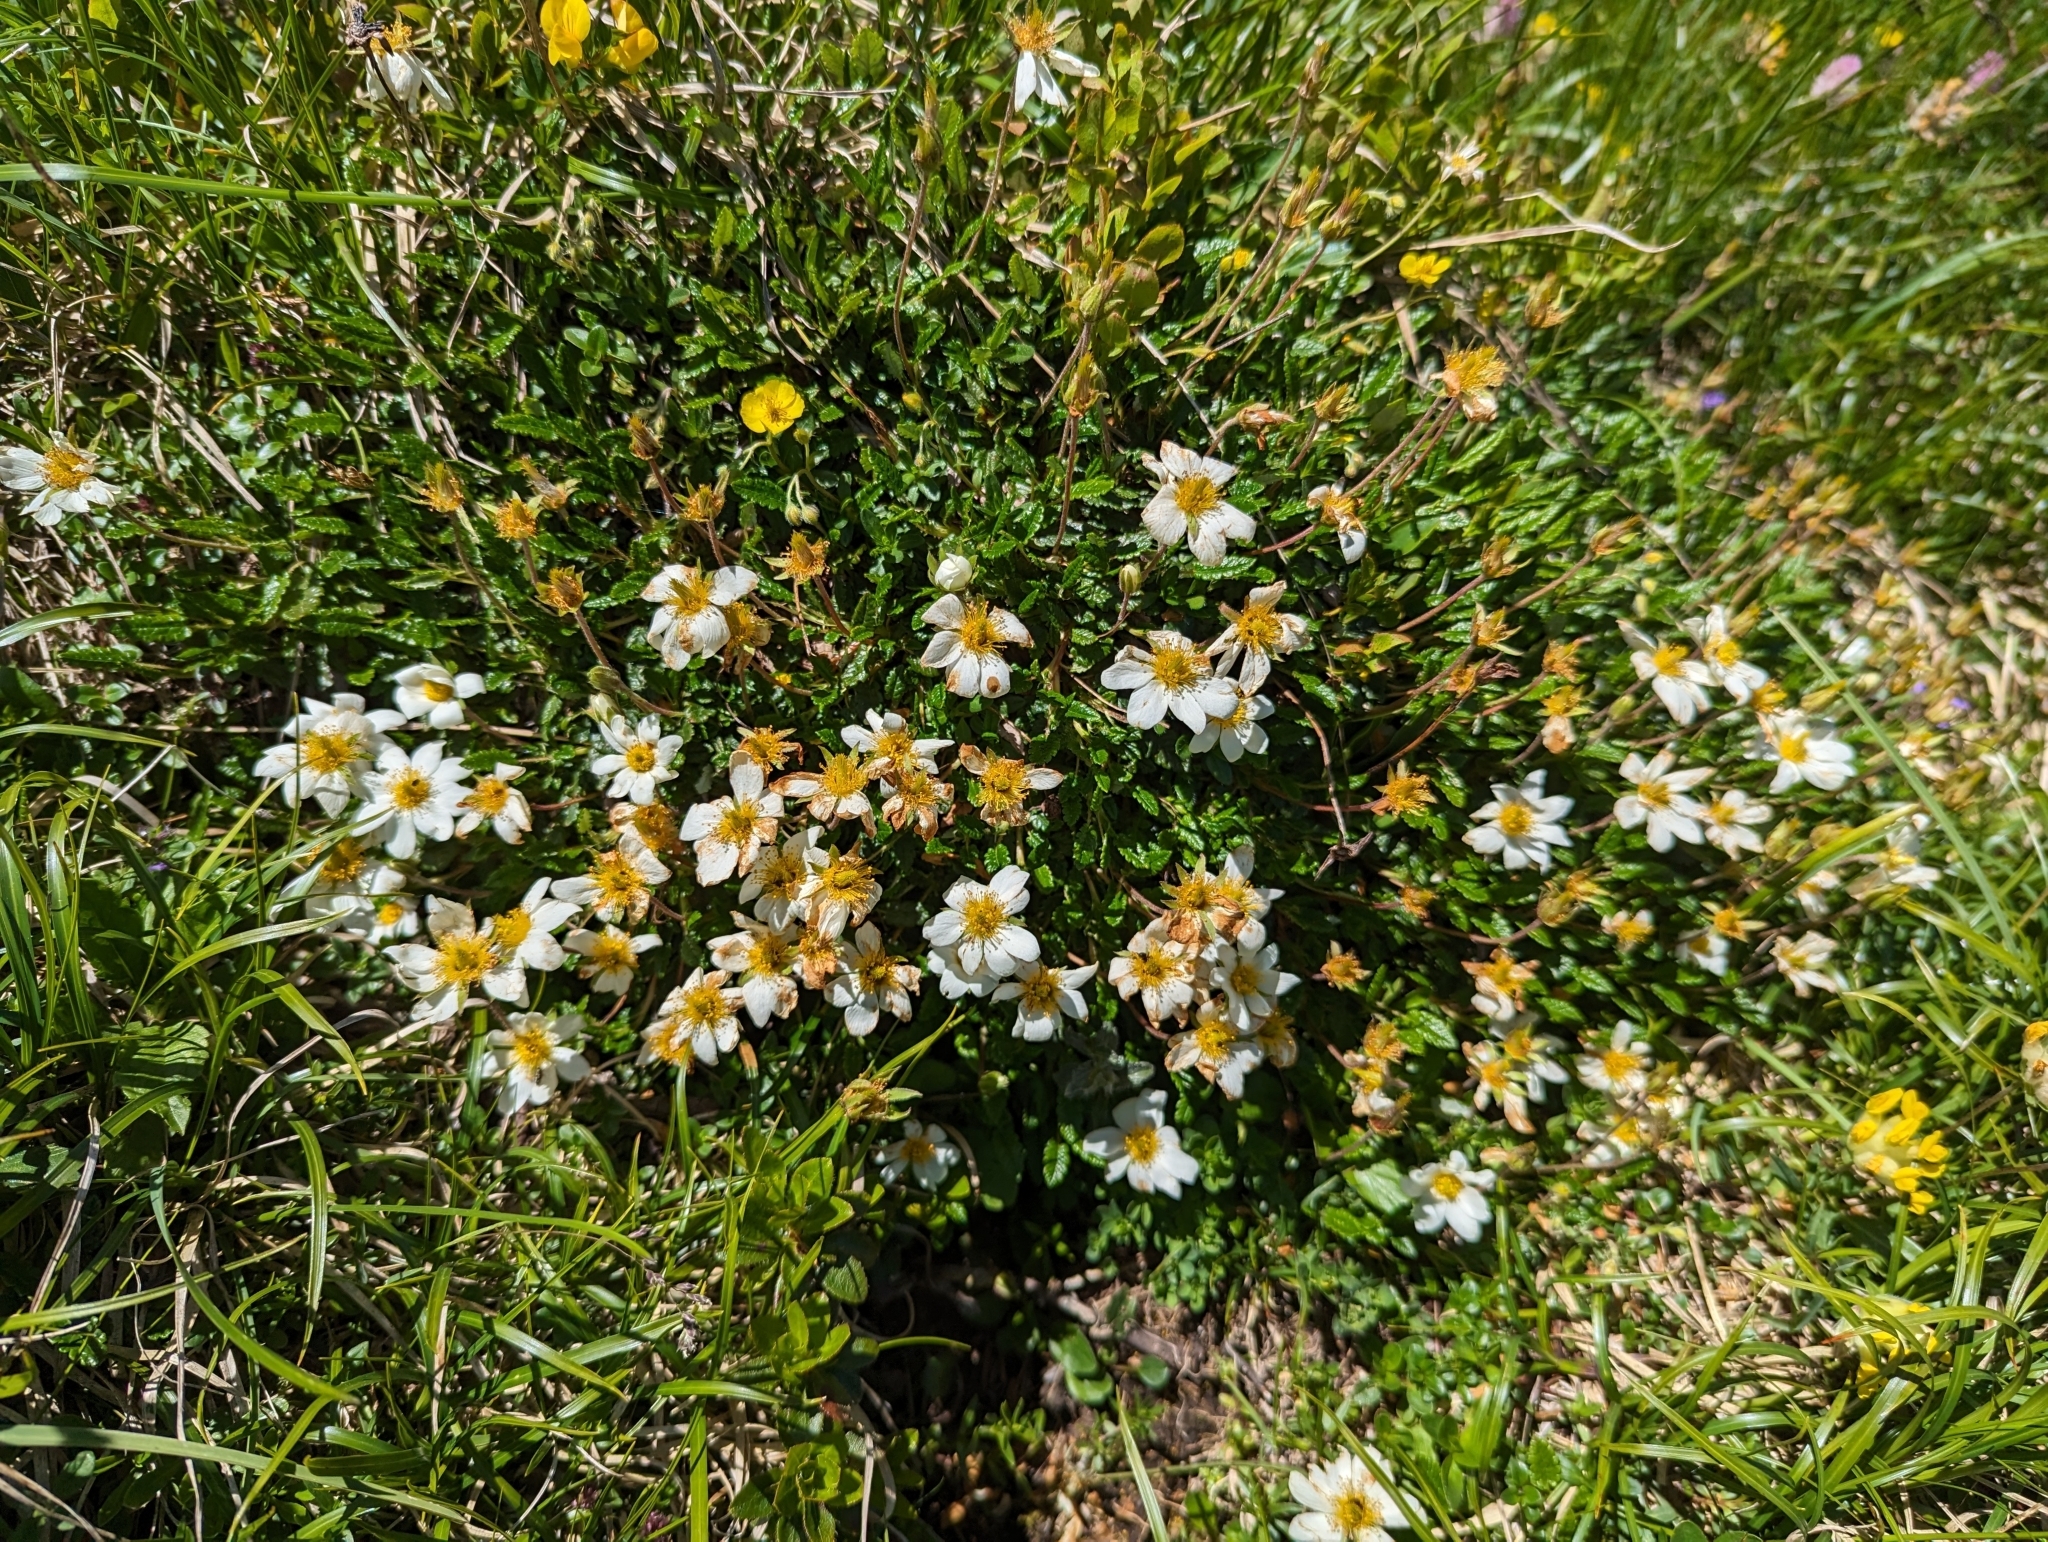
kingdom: Plantae
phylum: Tracheophyta
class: Magnoliopsida
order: Rosales
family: Rosaceae
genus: Dryas
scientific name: Dryas octopetala
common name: Eight-petal mountain-avens
